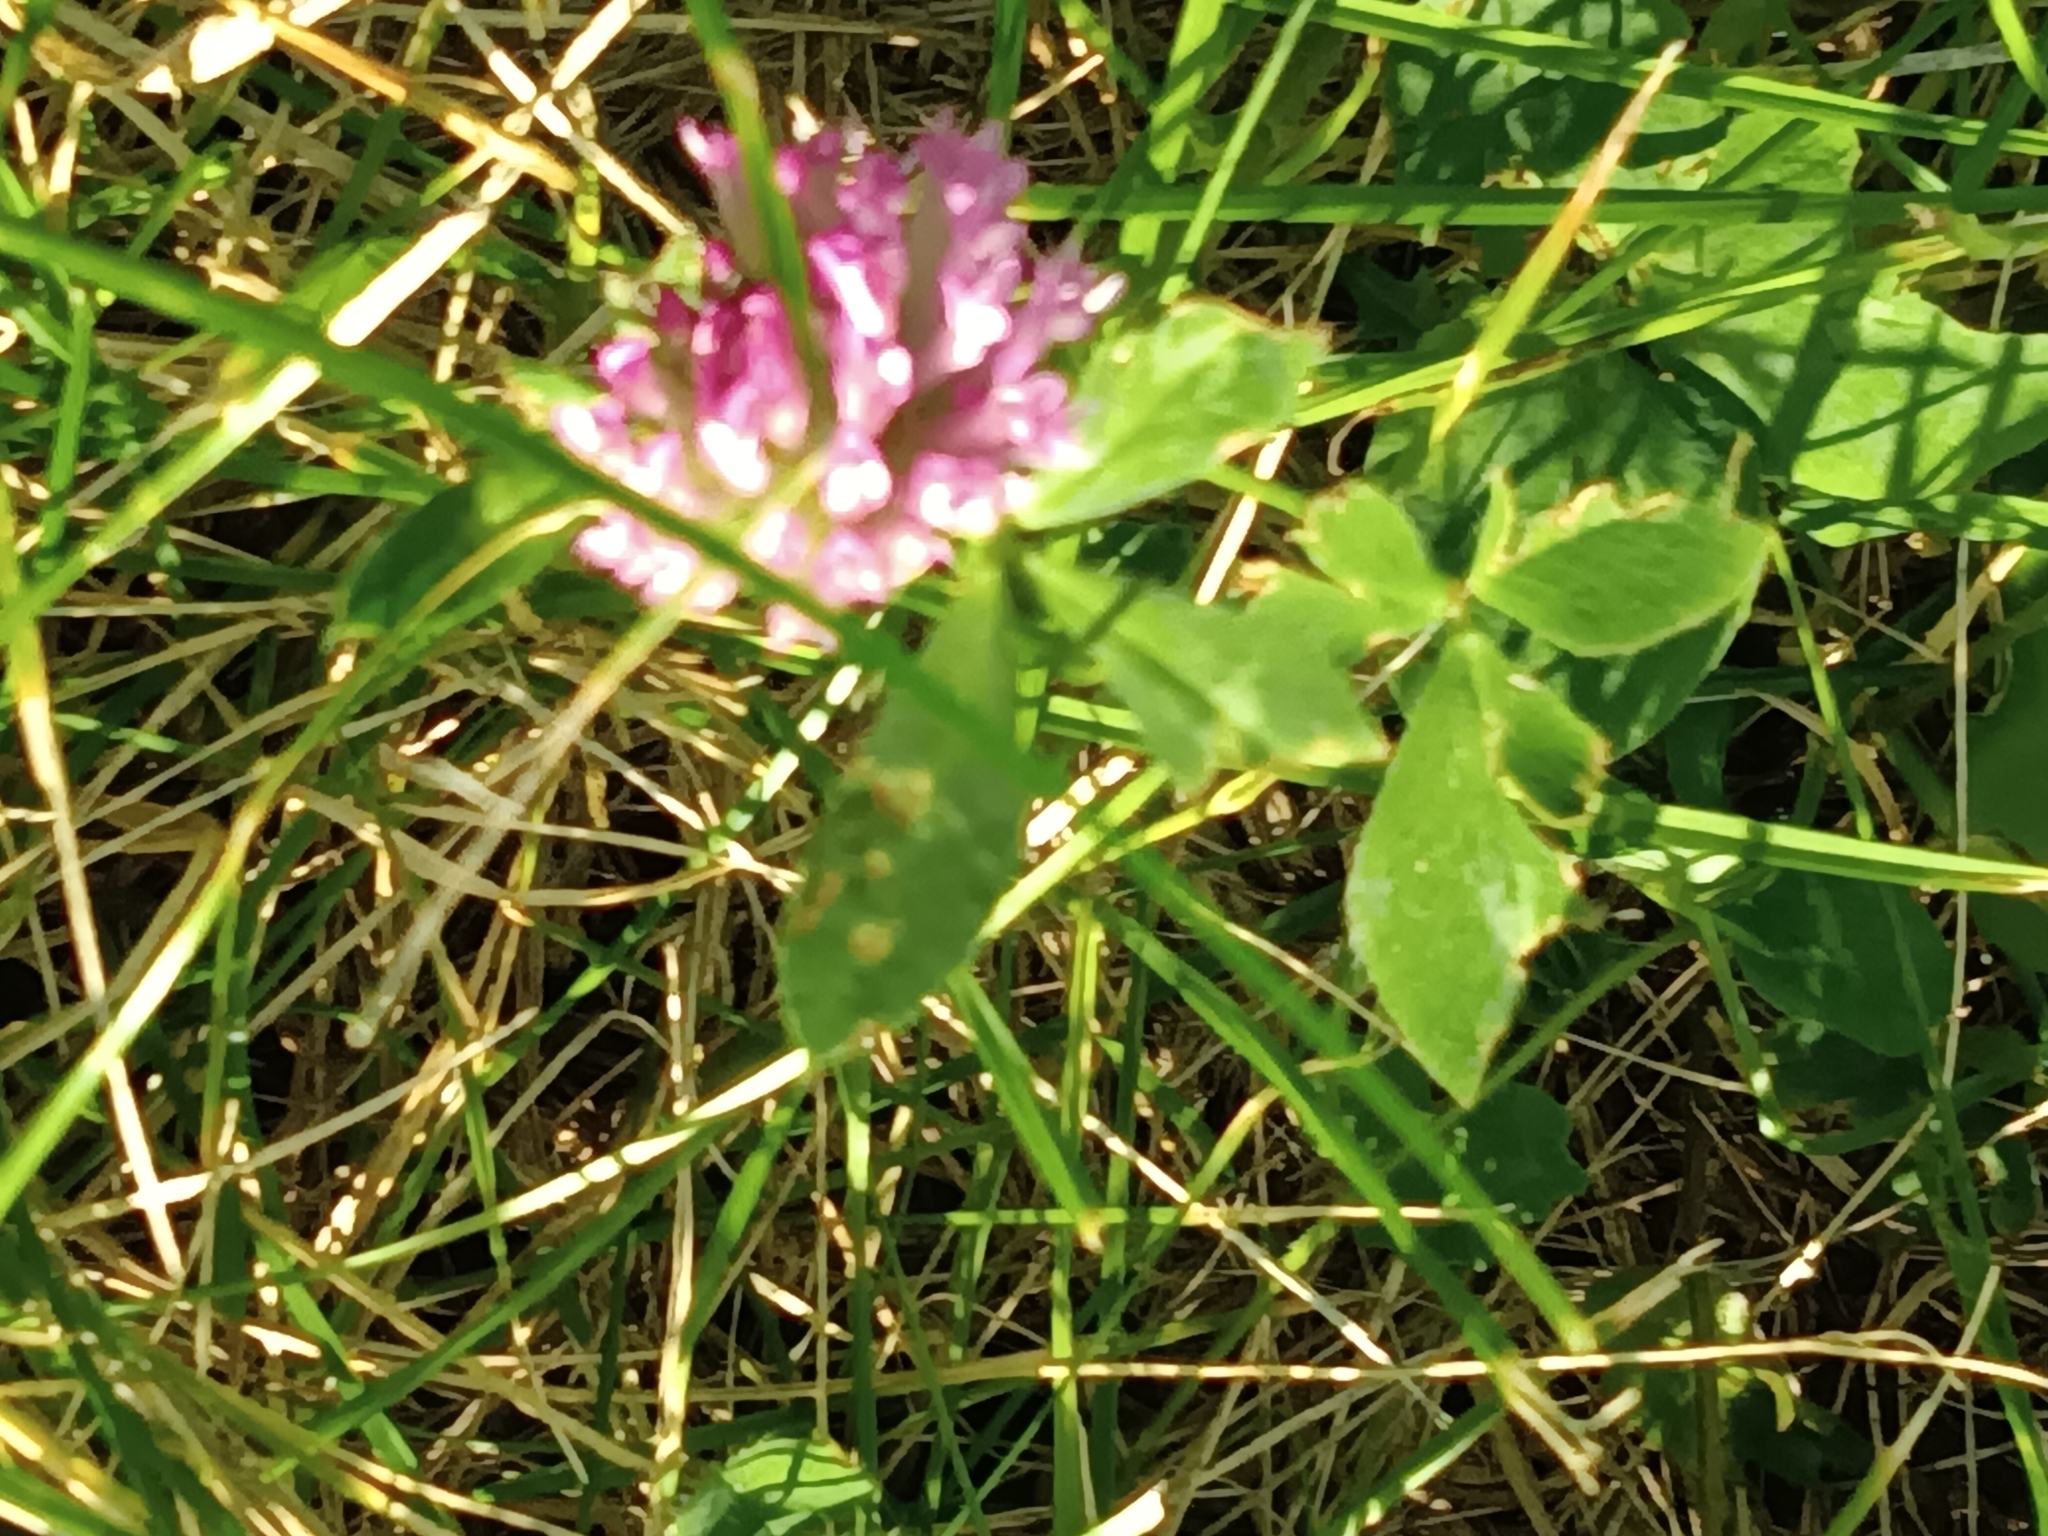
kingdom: Plantae
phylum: Tracheophyta
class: Magnoliopsida
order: Fabales
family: Fabaceae
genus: Trifolium
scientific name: Trifolium pratense
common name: Red clover
